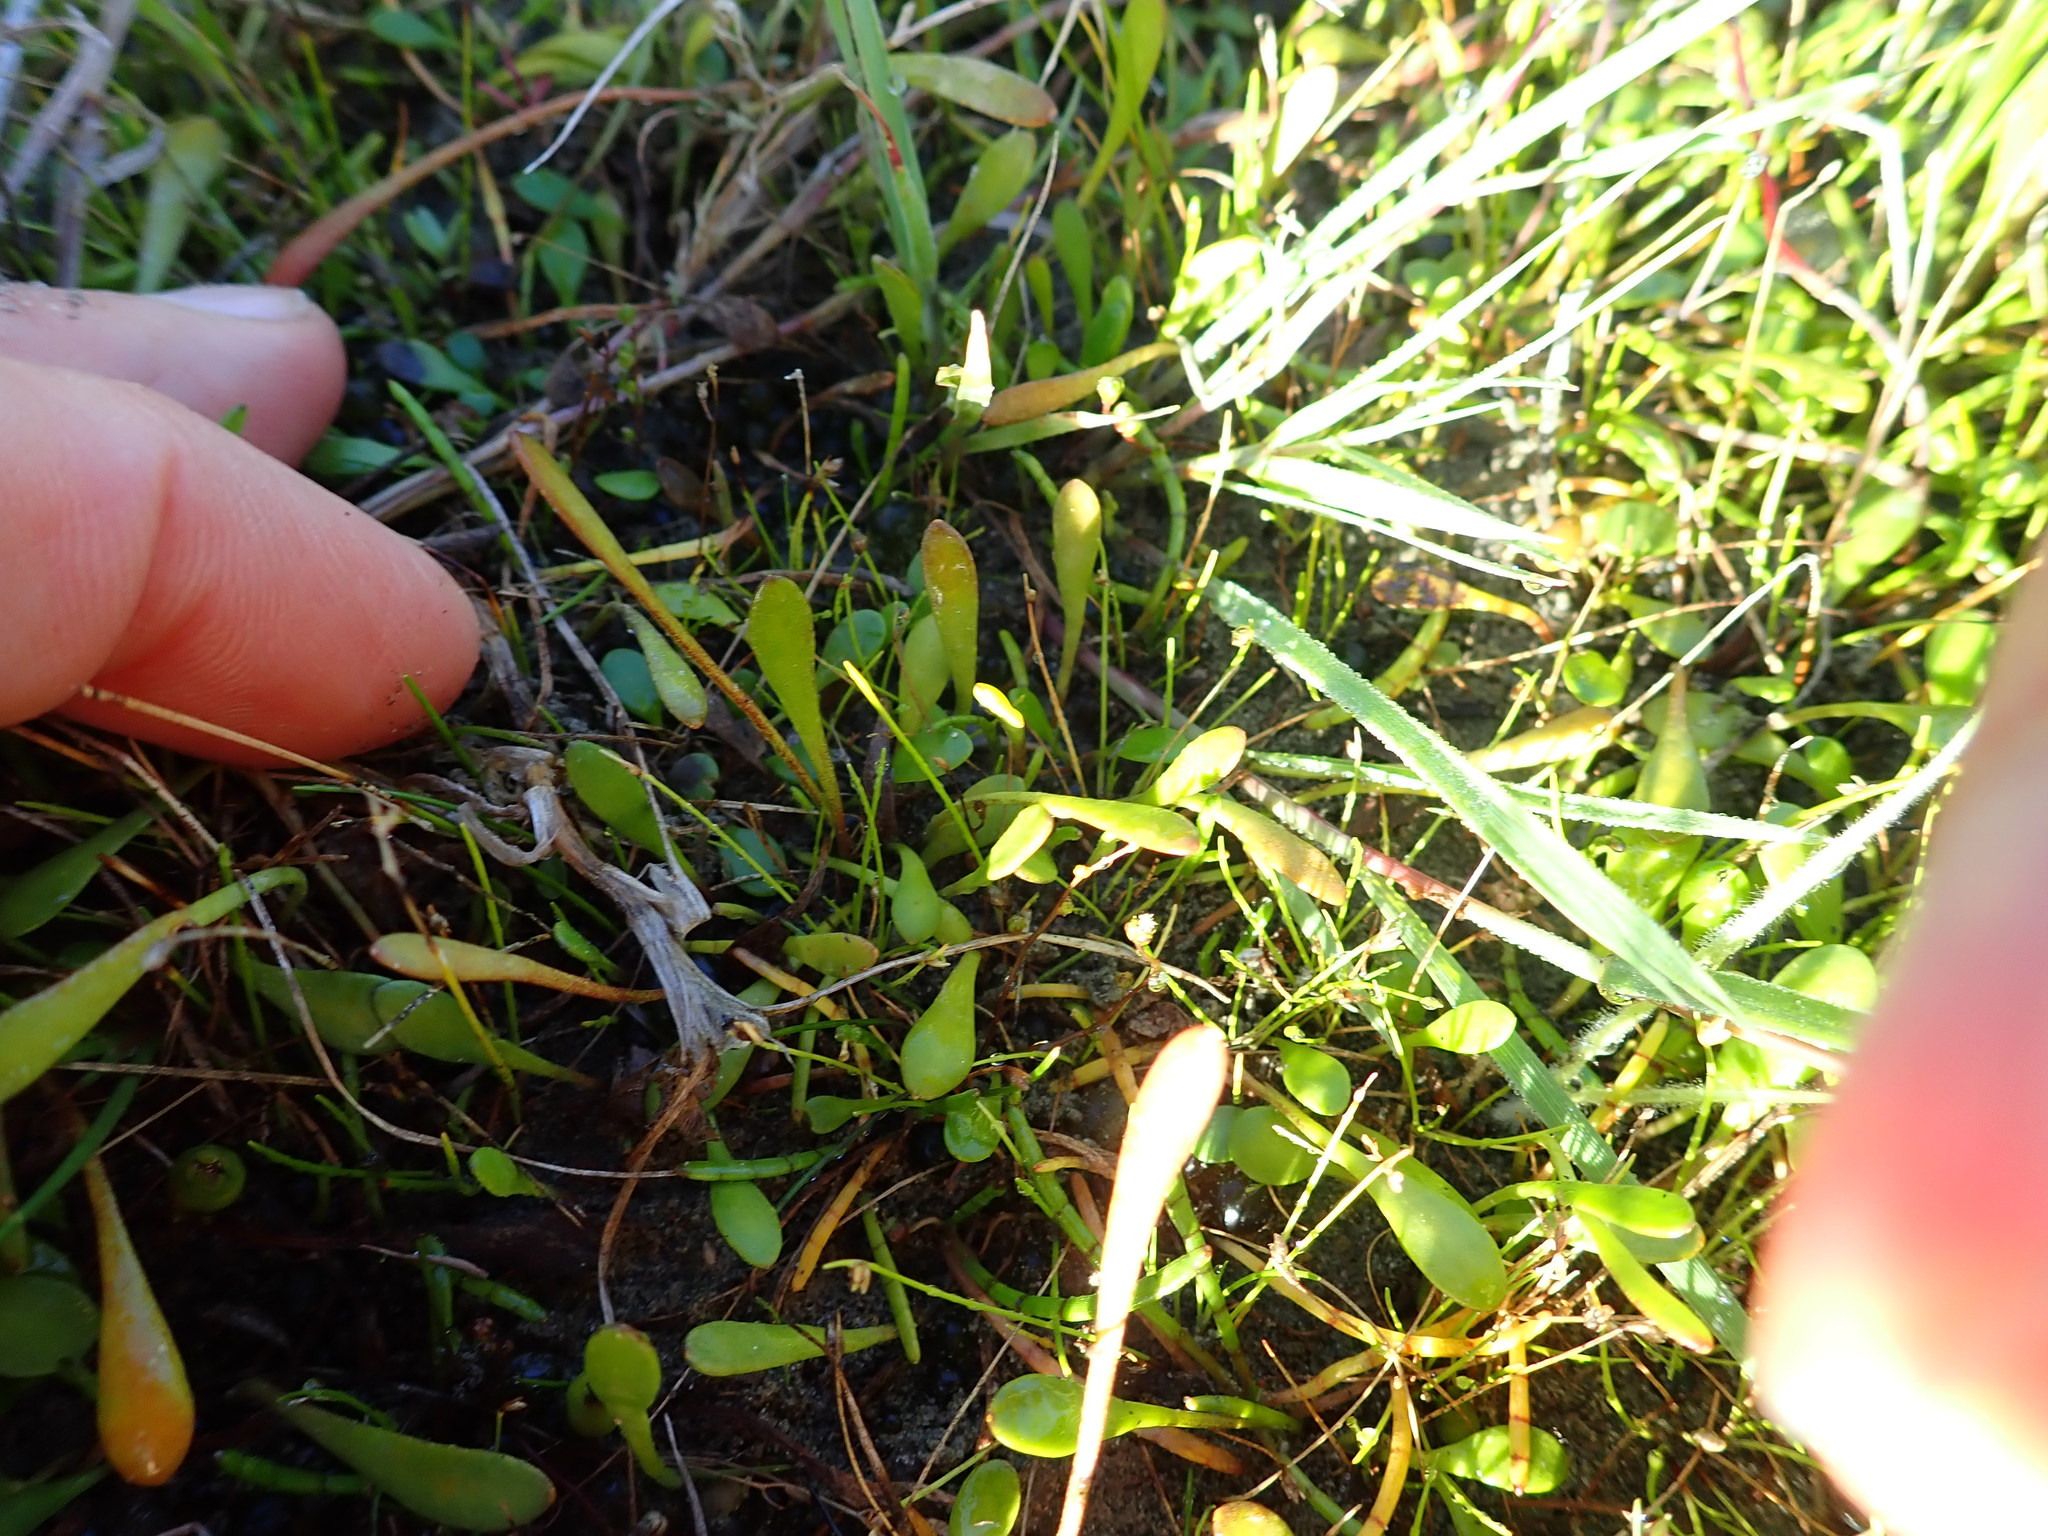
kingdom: Plantae
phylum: Tracheophyta
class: Magnoliopsida
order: Asterales
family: Goodeniaceae
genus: Goodenia
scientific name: Goodenia radicans
